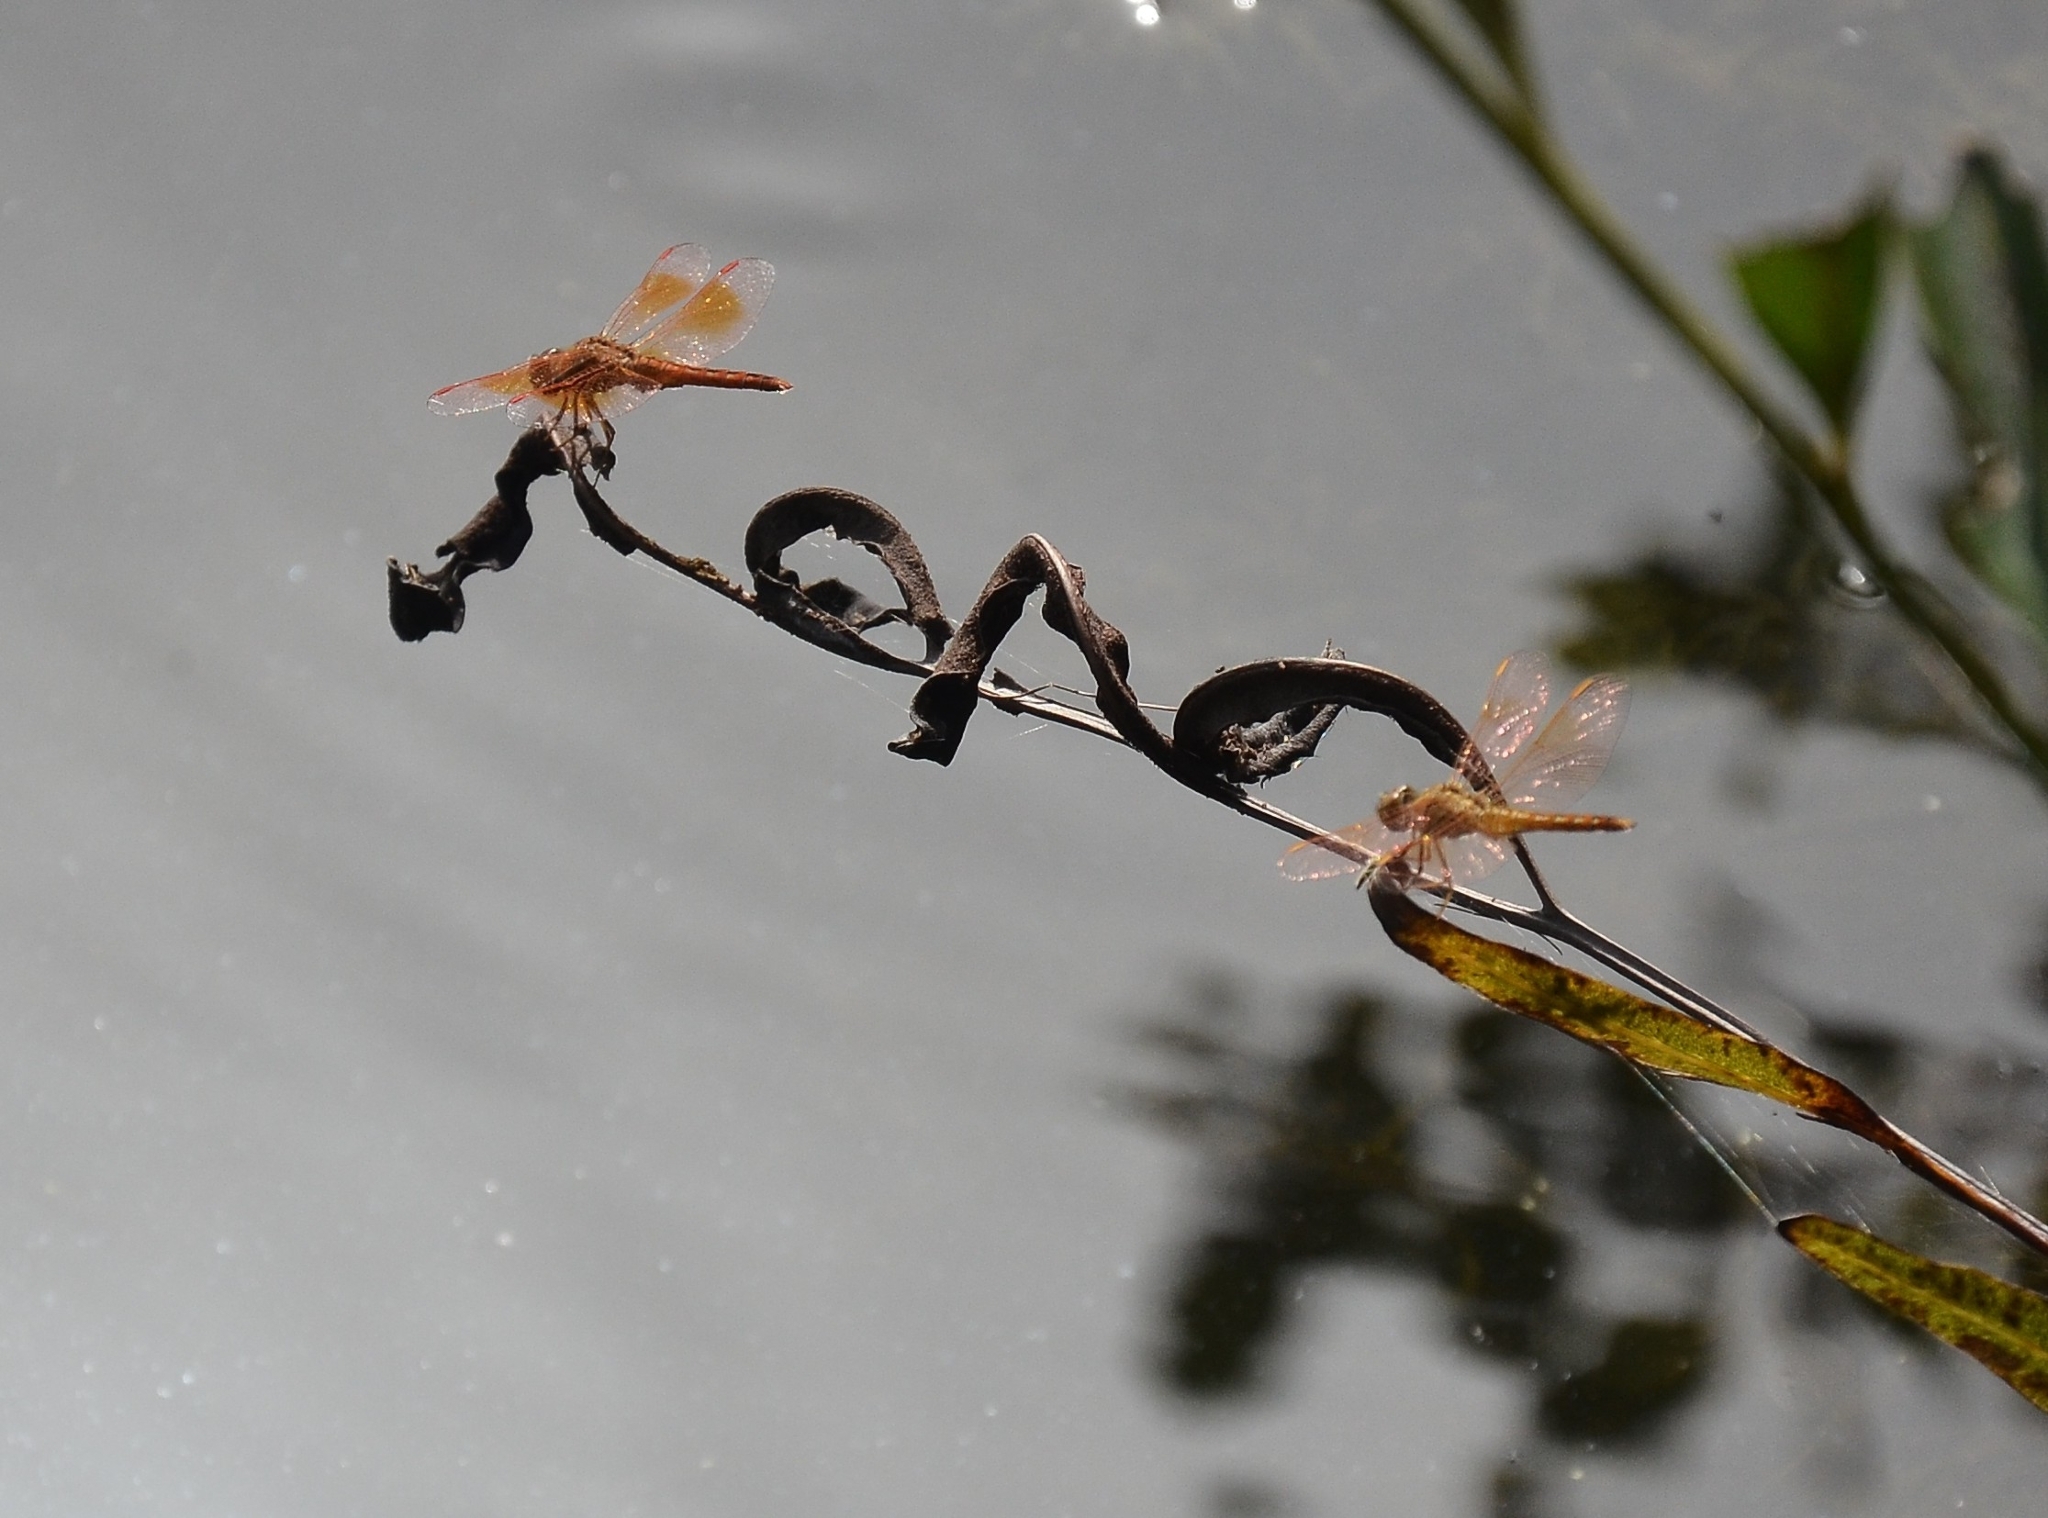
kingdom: Animalia
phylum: Arthropoda
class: Insecta
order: Odonata
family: Libellulidae
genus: Brachythemis
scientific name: Brachythemis contaminata
